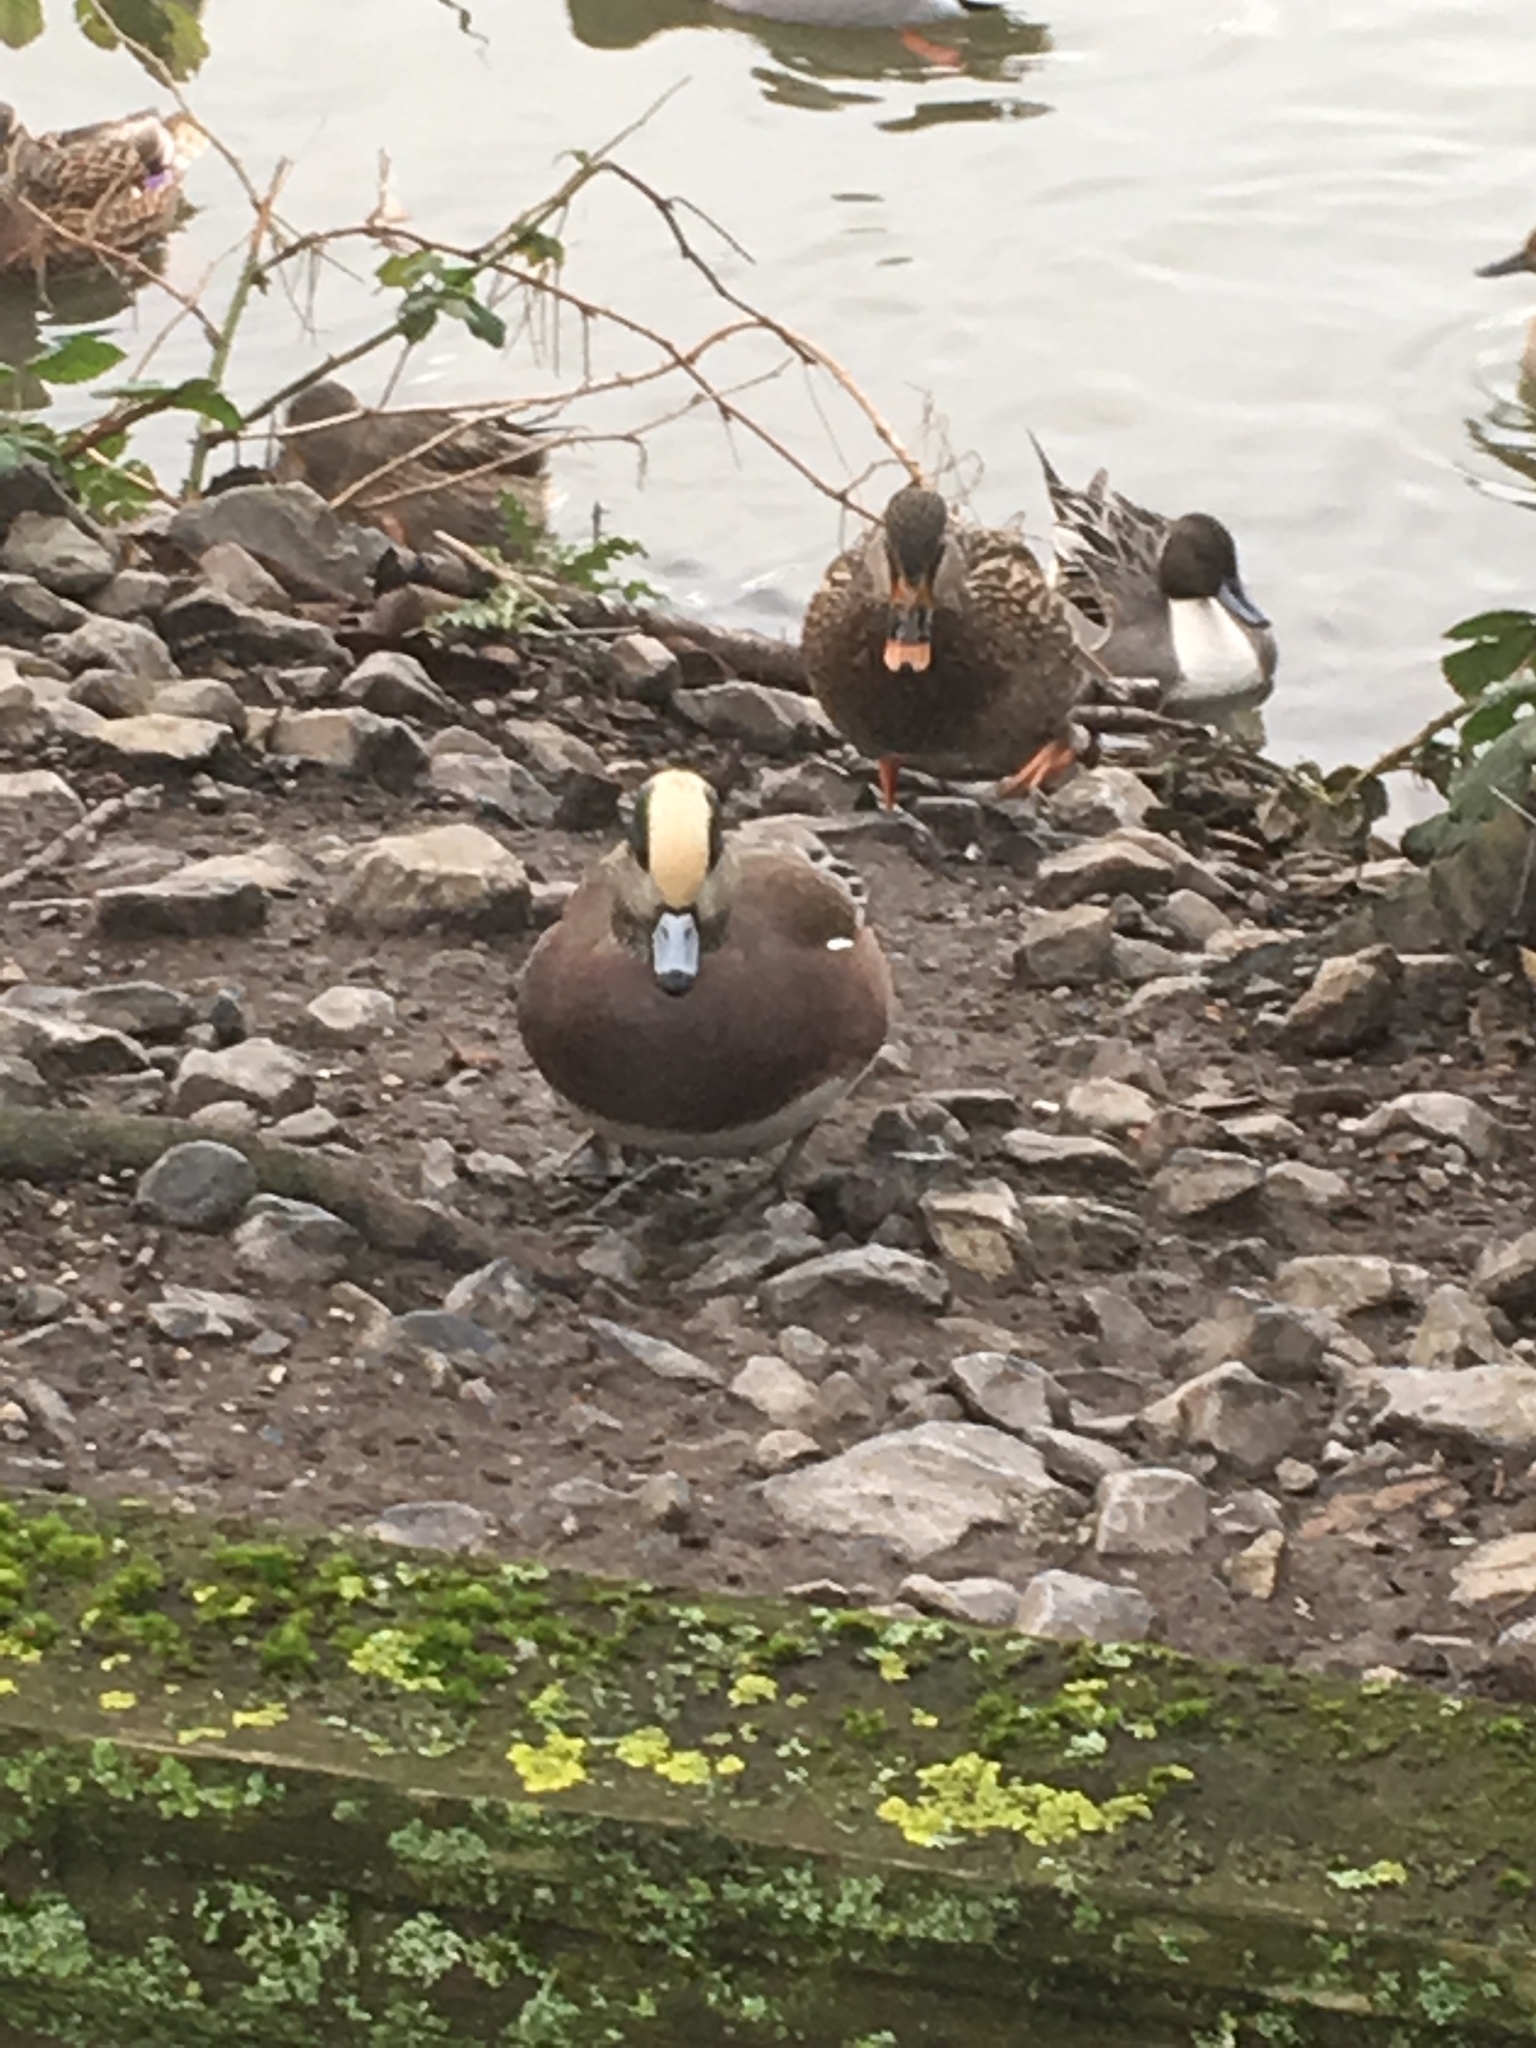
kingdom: Animalia
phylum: Chordata
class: Aves
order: Anseriformes
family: Anatidae
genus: Mareca
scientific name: Mareca americana
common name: American wigeon
